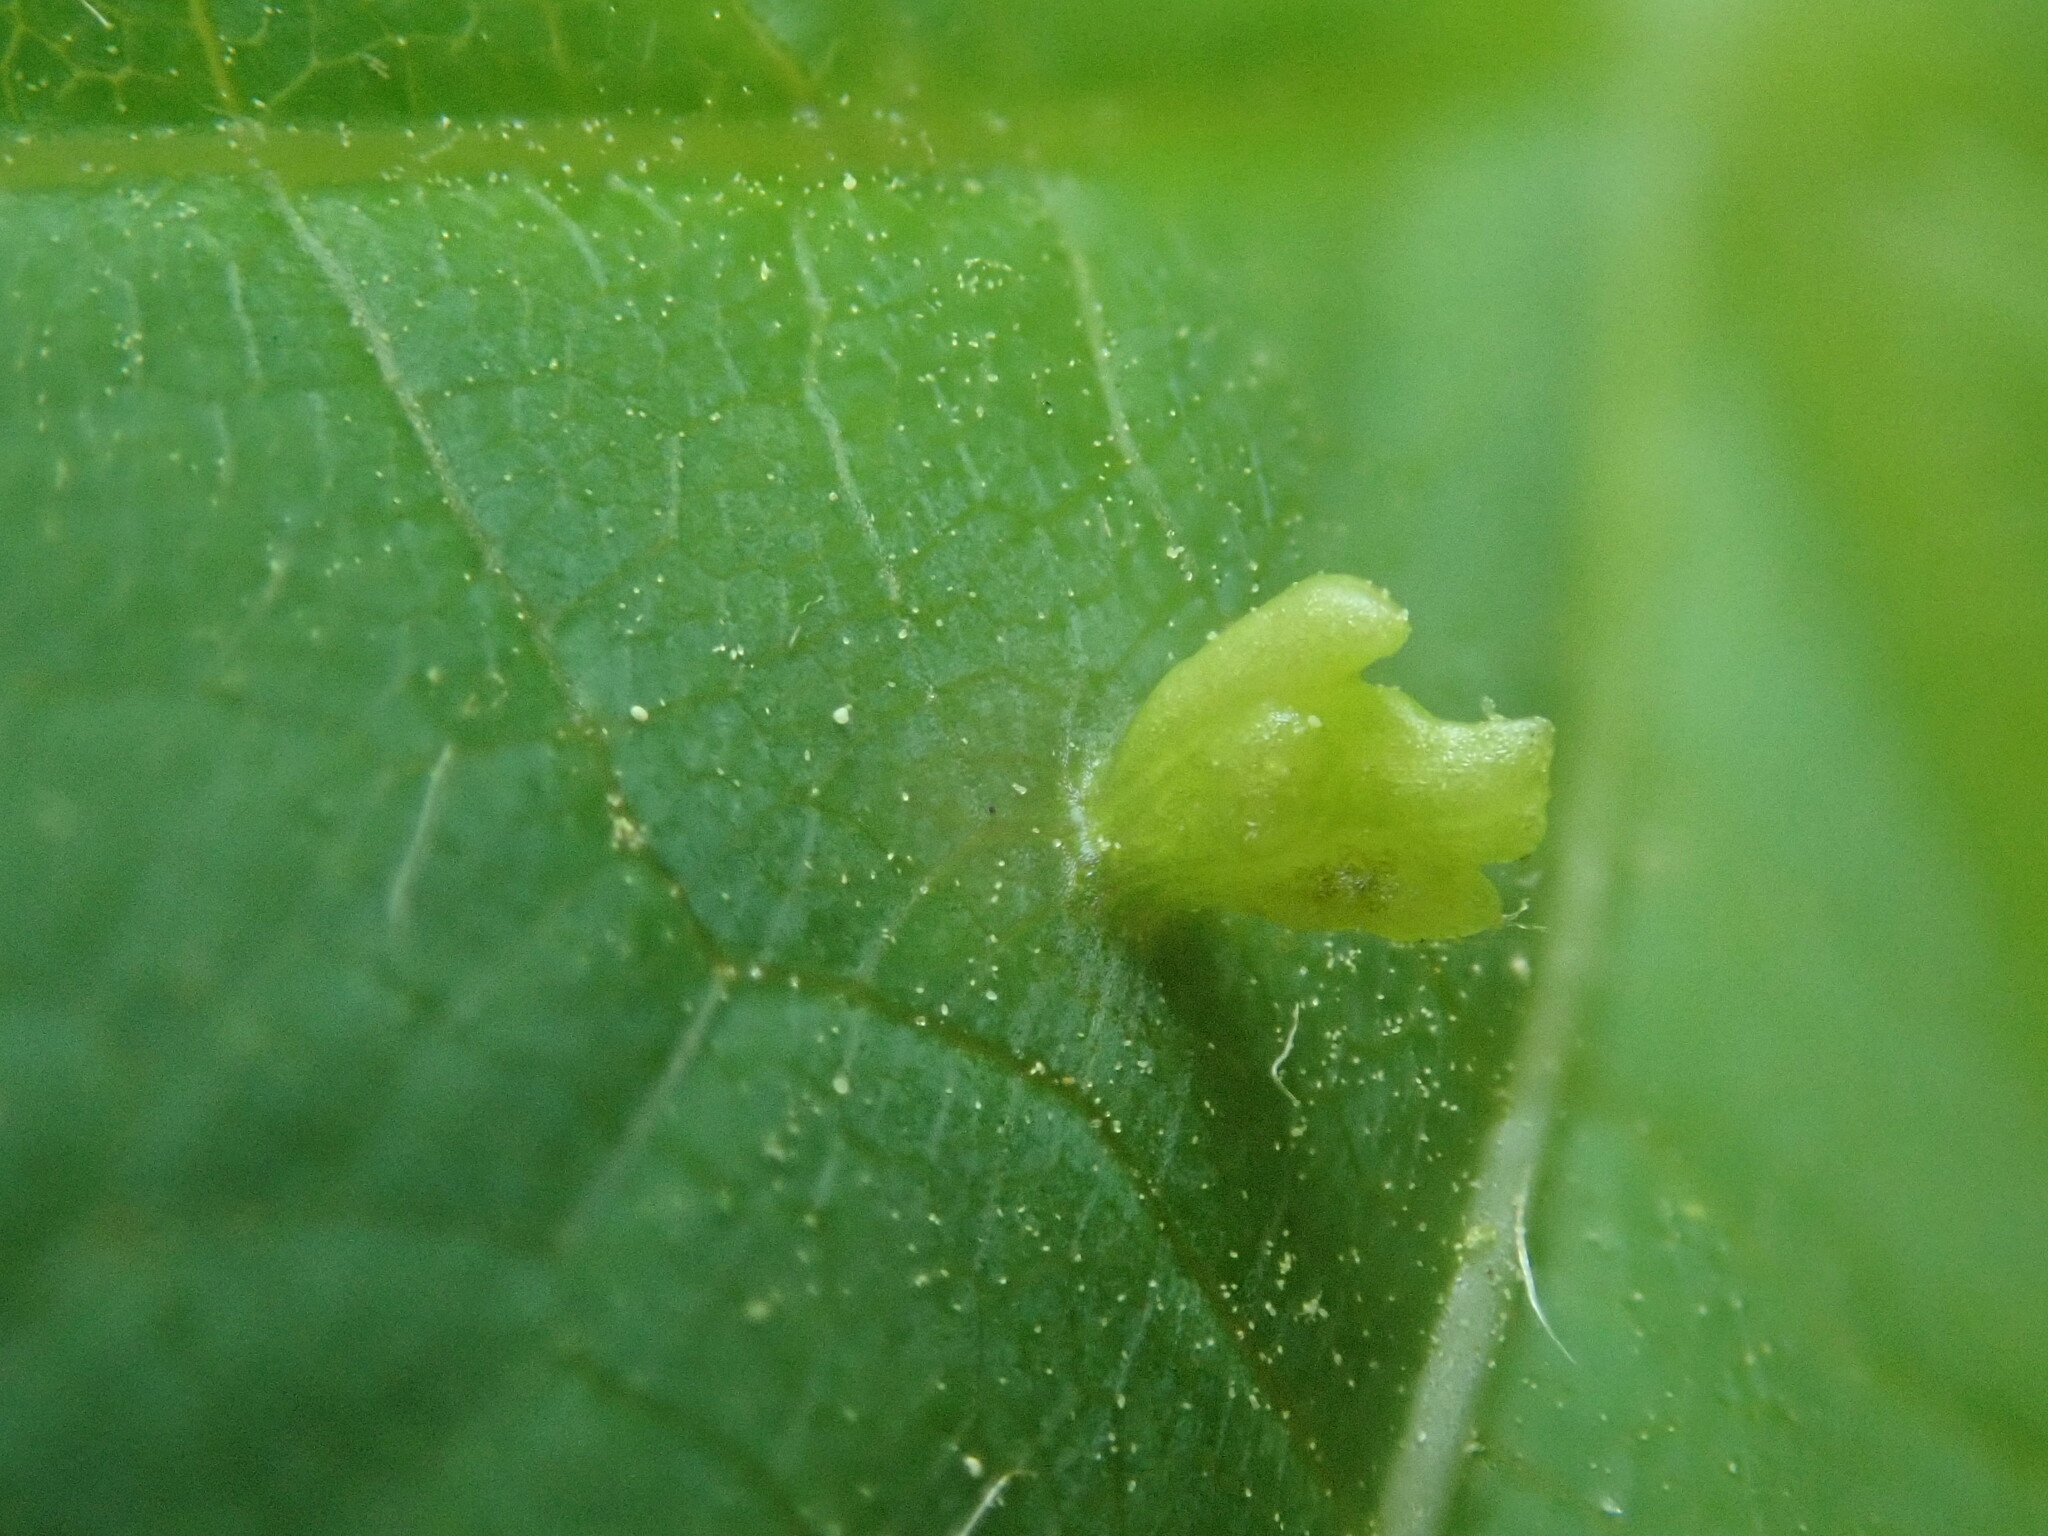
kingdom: Animalia
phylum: Arthropoda
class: Arachnida
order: Trombidiformes
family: Eriophyidae
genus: Eriophyes
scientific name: Eriophyes tiliae
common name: Red nail gall mite
